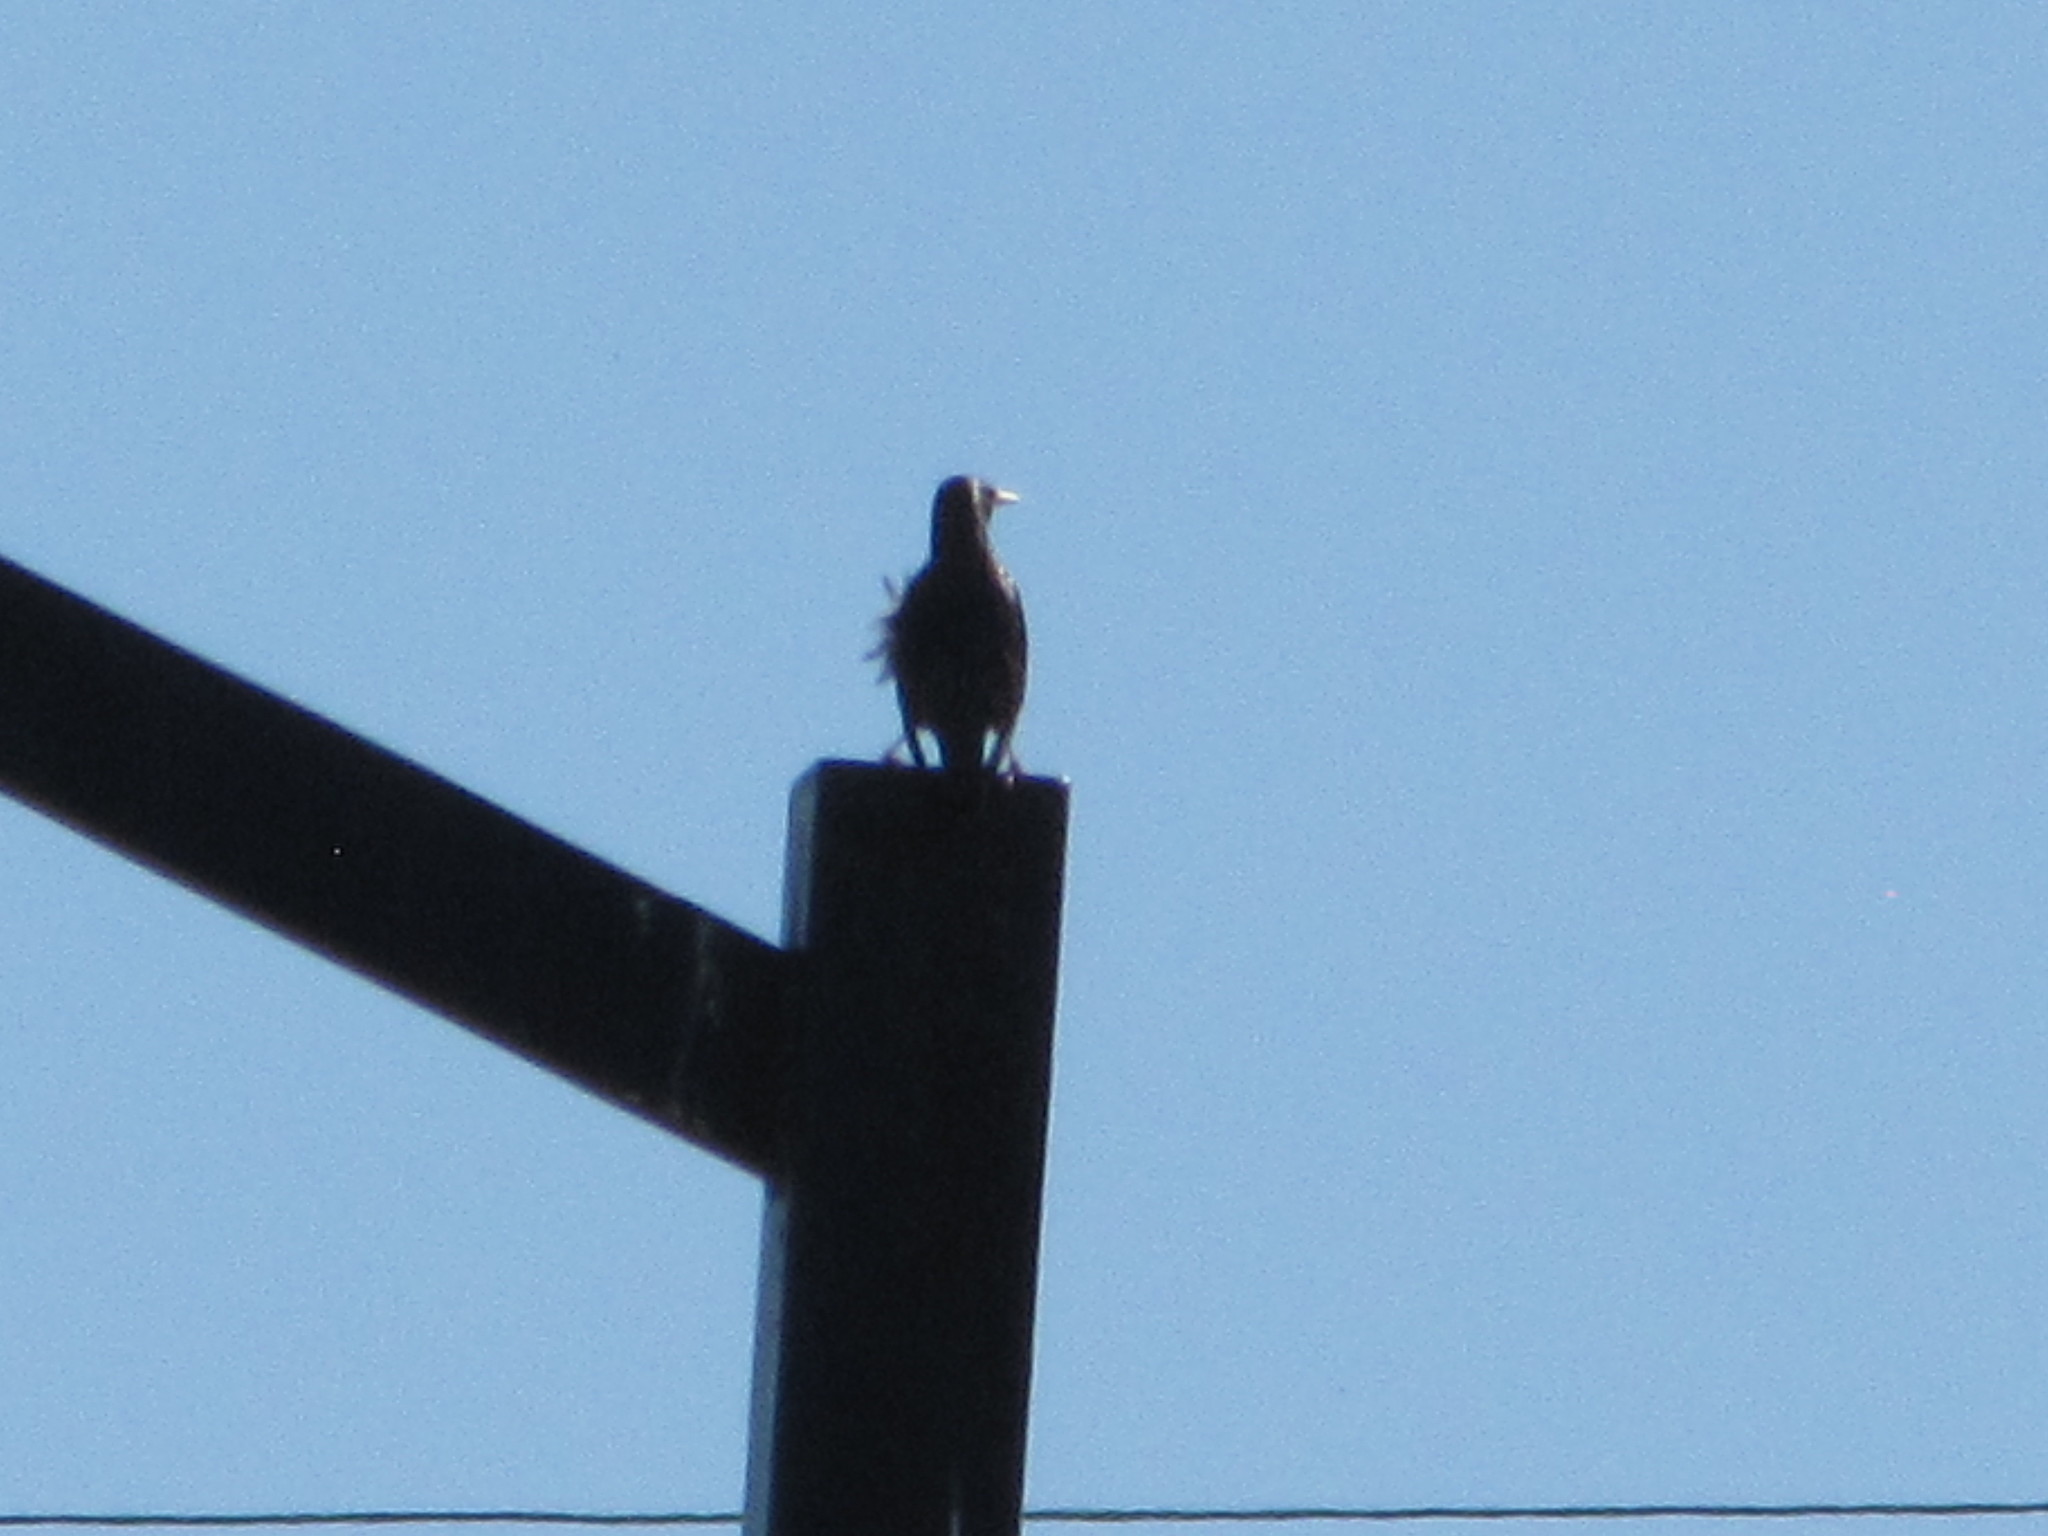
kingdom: Animalia
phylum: Chordata
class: Aves
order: Passeriformes
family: Sturnidae
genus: Sturnus
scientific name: Sturnus vulgaris
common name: Common starling
